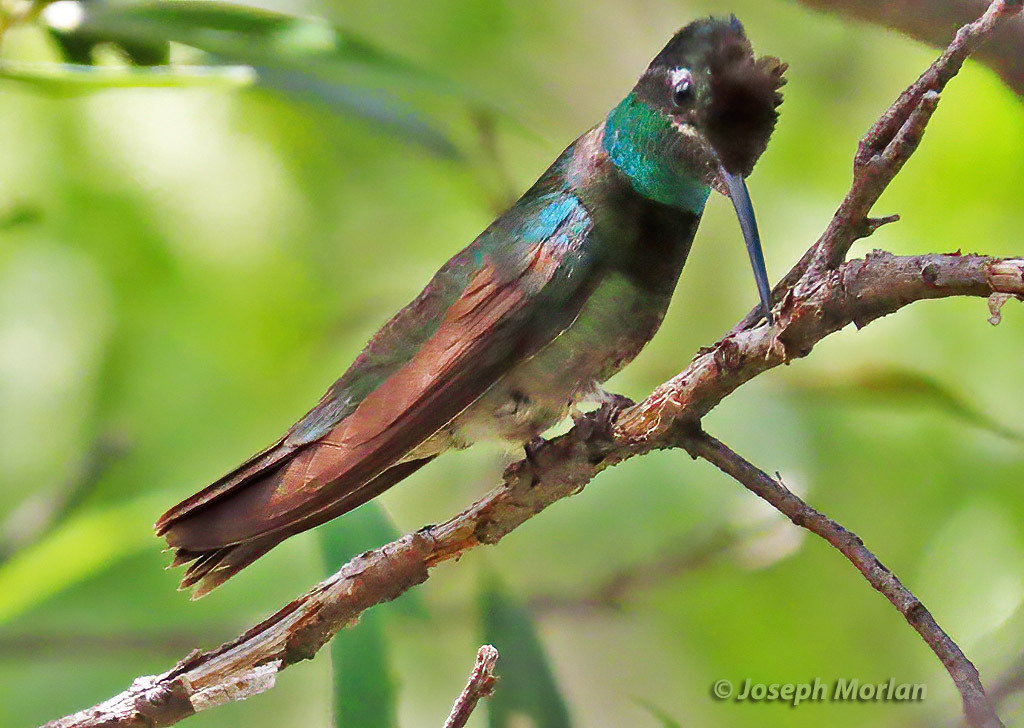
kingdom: Animalia
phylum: Chordata
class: Aves
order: Apodiformes
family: Trochilidae
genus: Eugenes
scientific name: Eugenes fulgens
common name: Magnificent hummingbird
